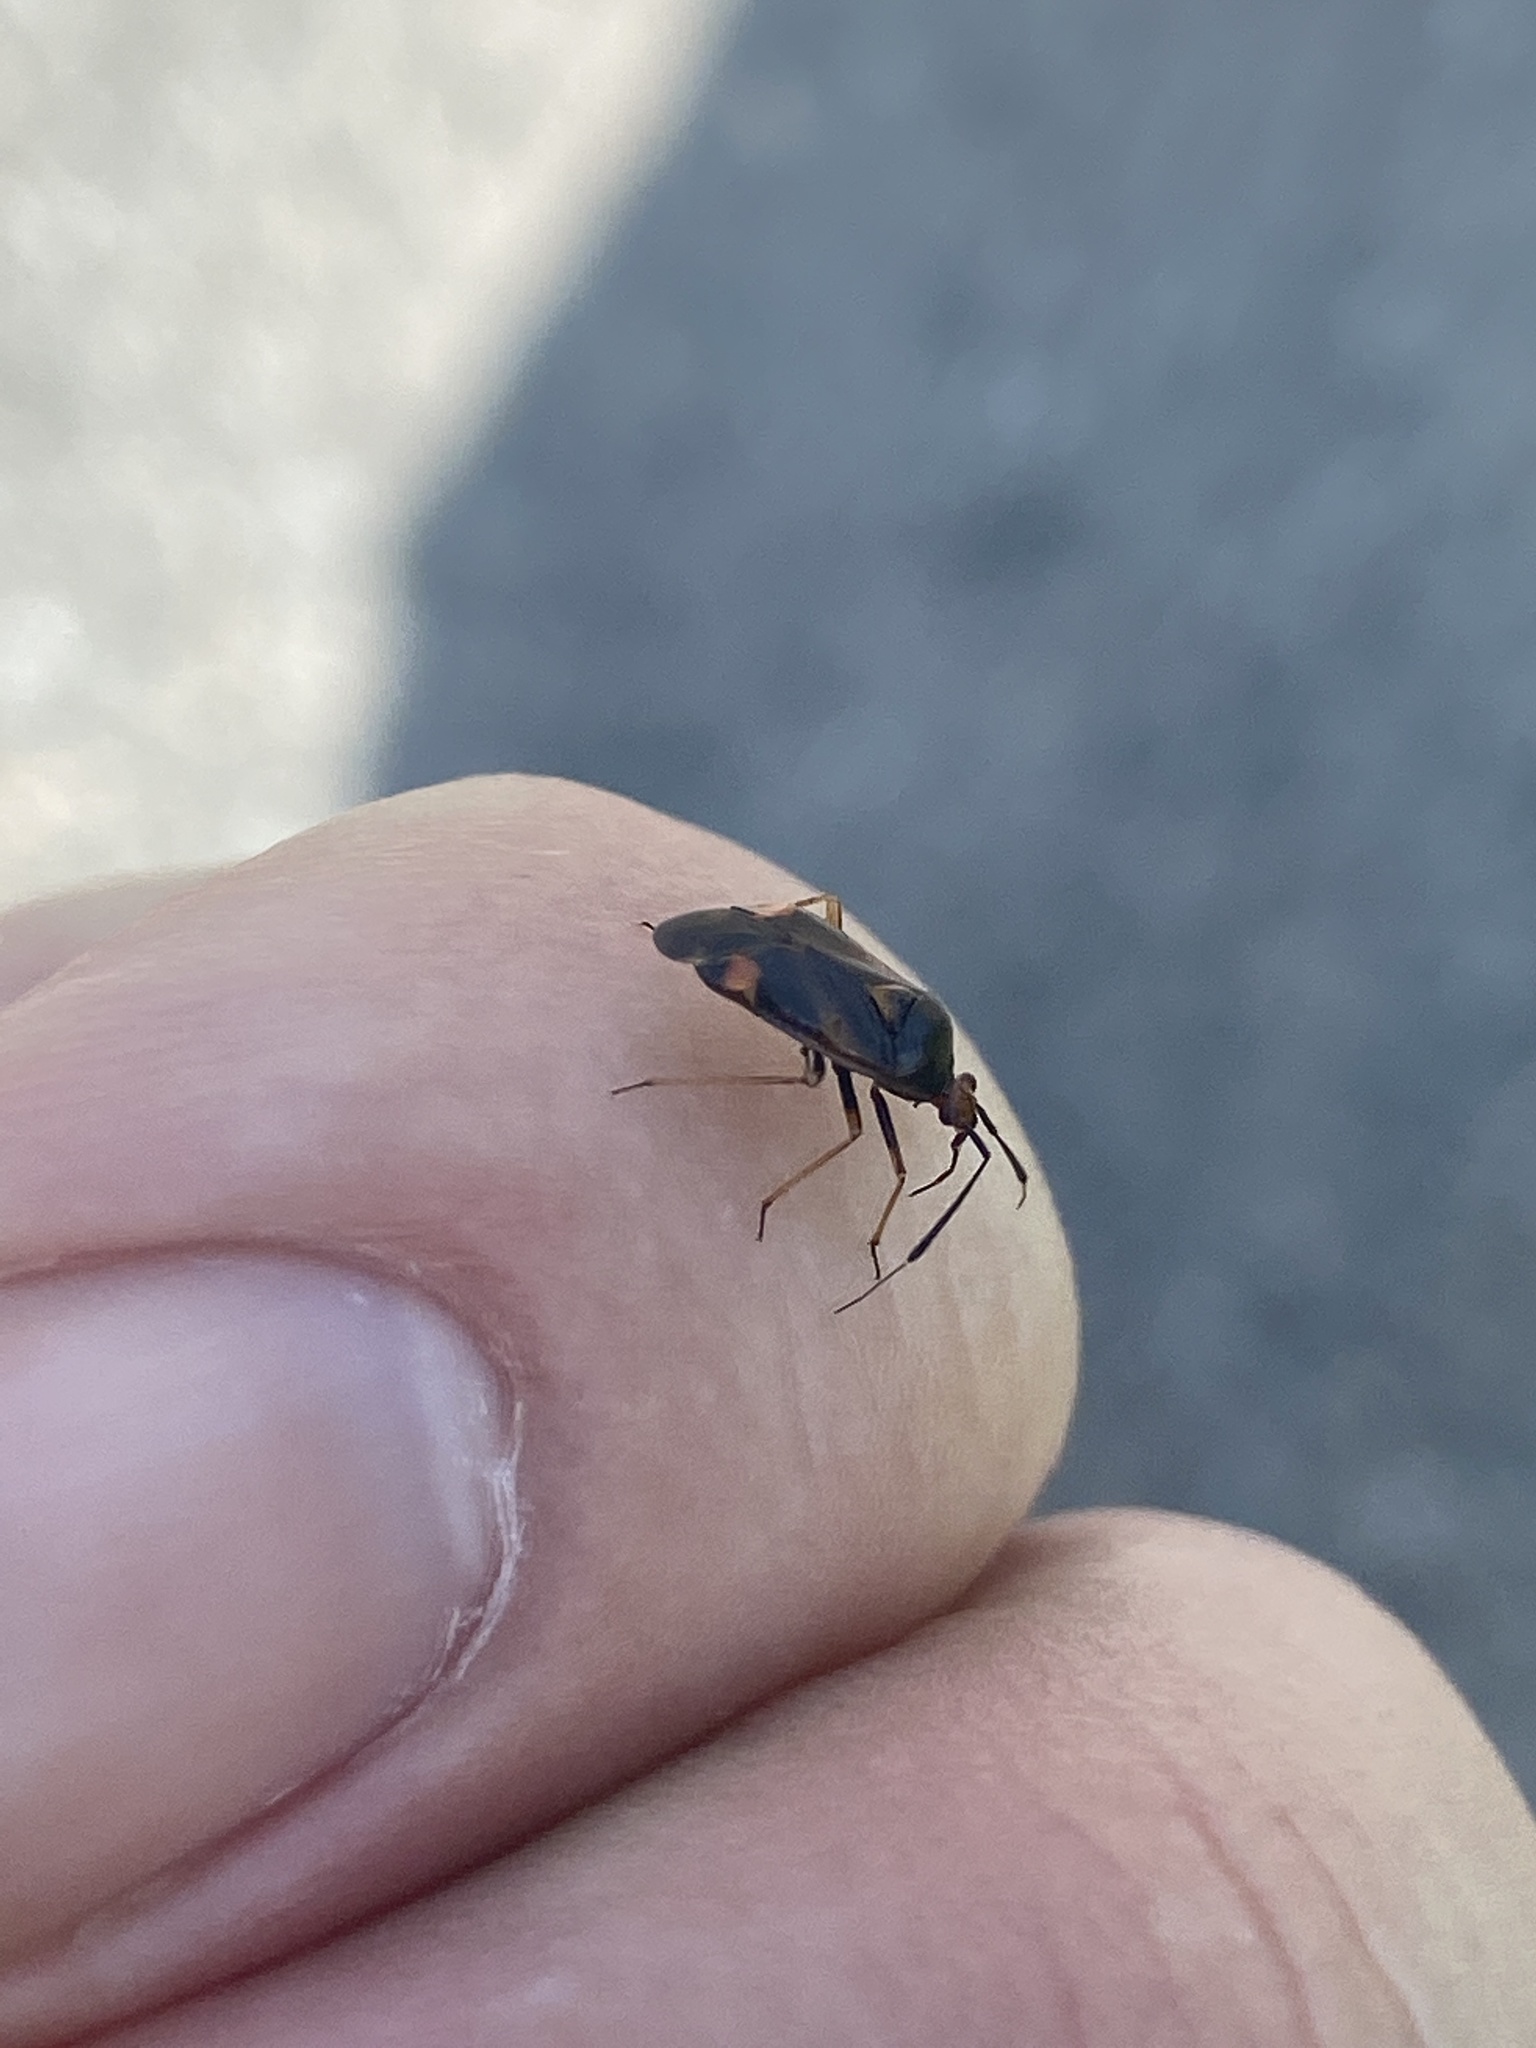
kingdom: Animalia
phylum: Arthropoda
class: Insecta
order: Hemiptera
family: Miridae
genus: Deraeocoris
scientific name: Deraeocoris ruber
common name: Plant bug
